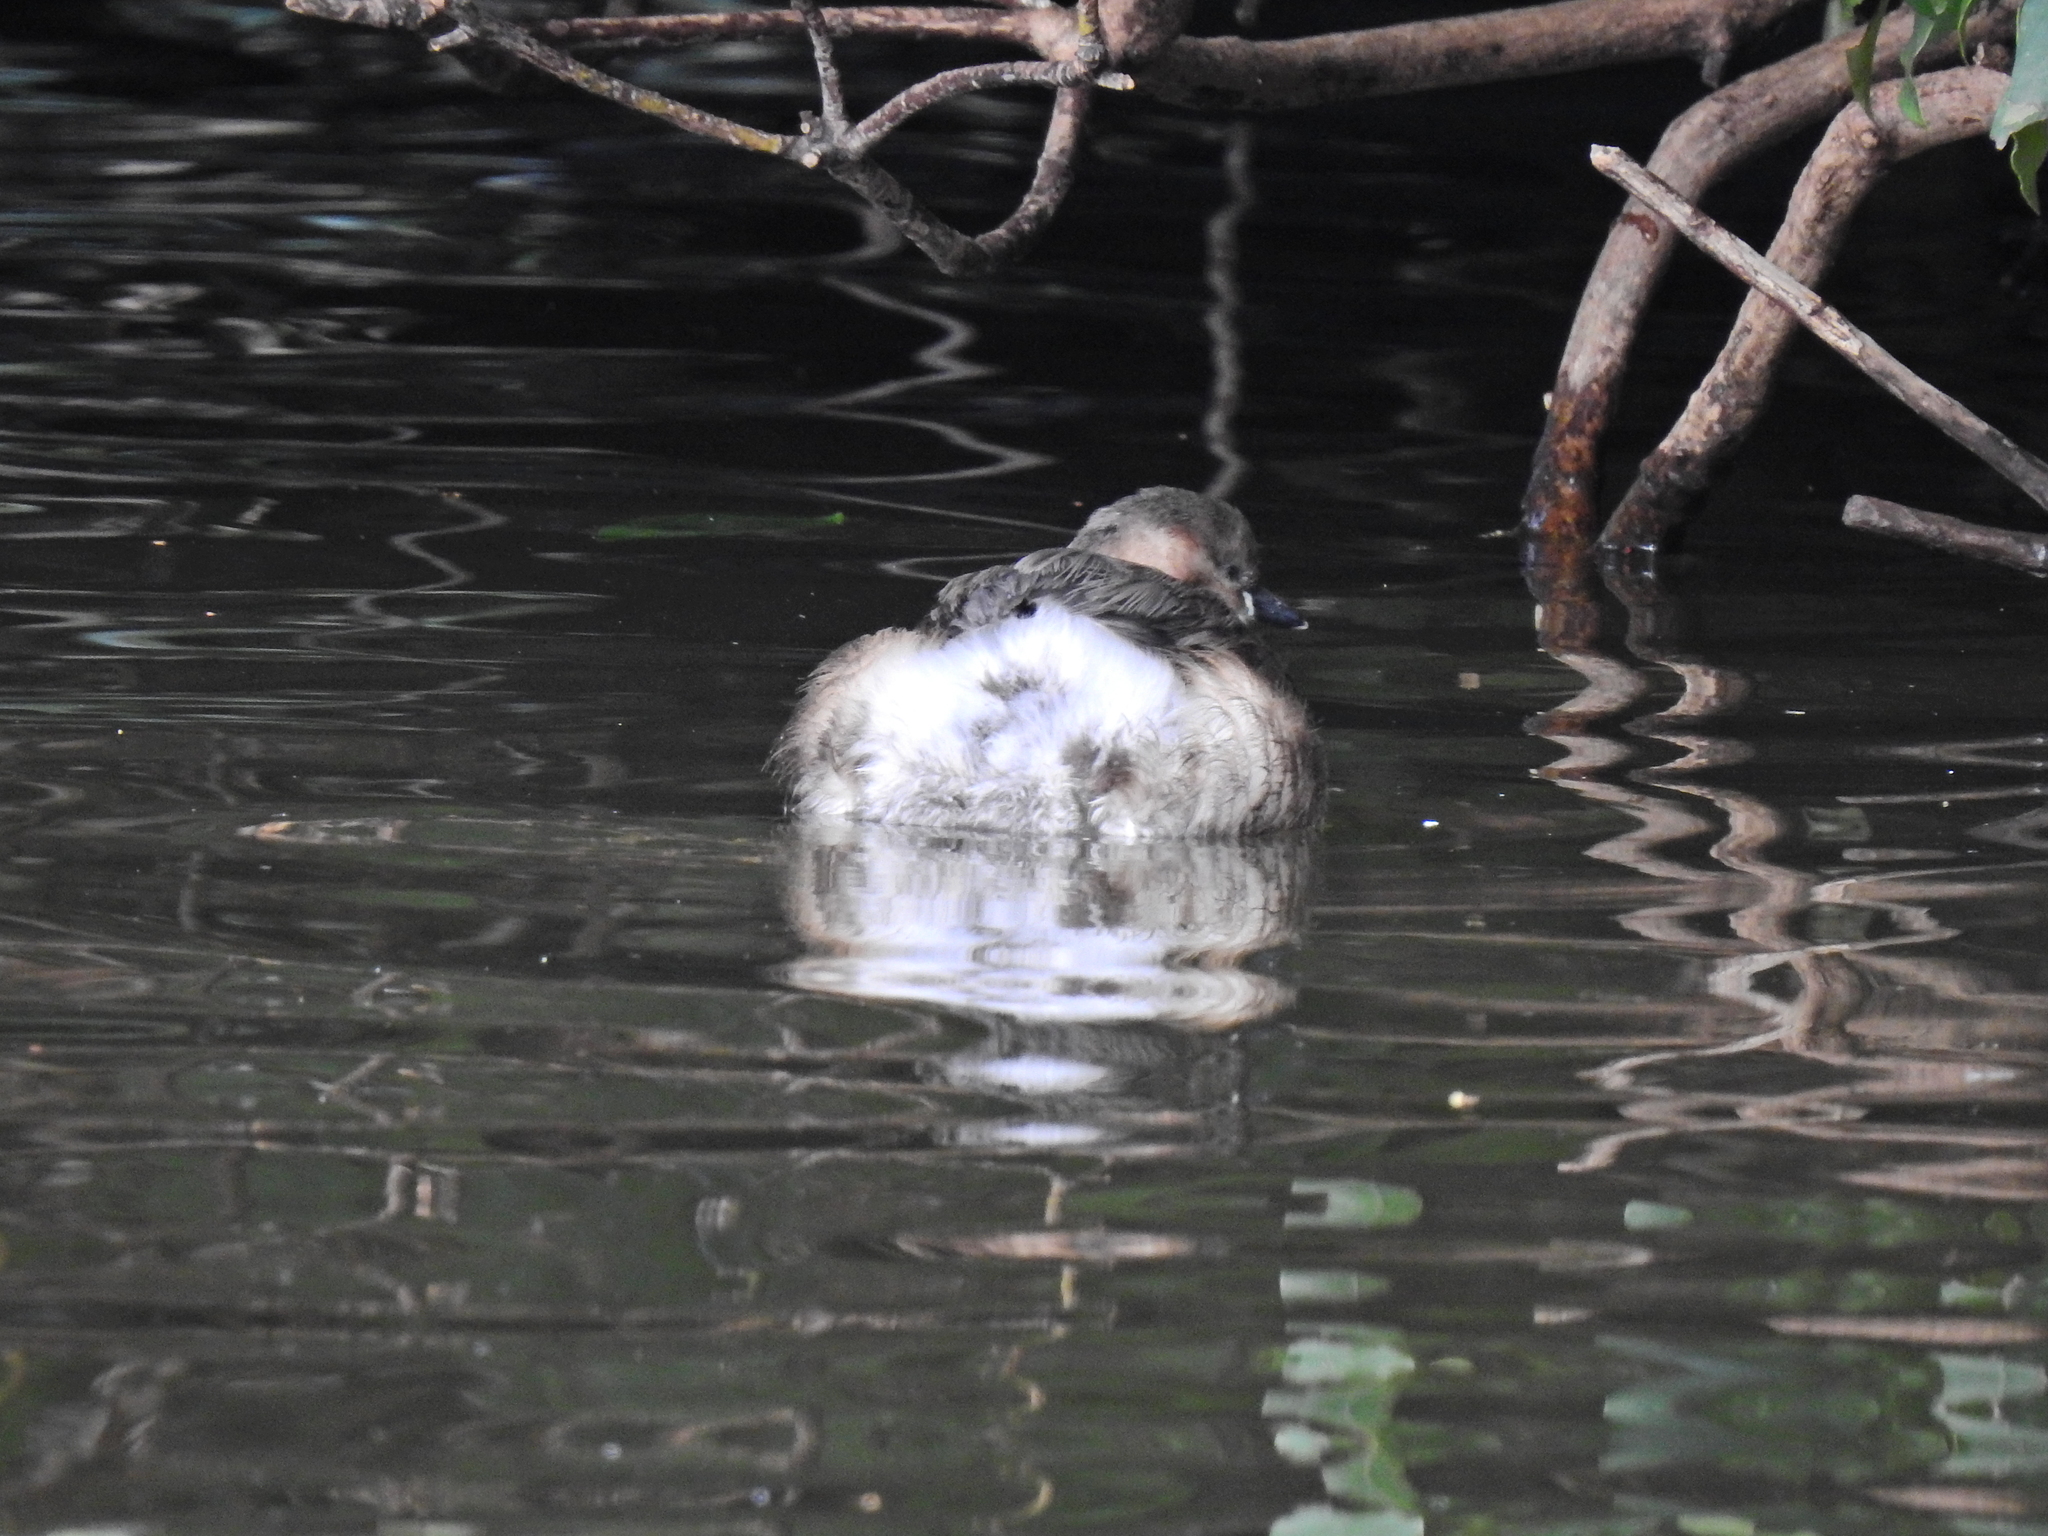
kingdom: Animalia
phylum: Chordata
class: Aves
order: Podicipediformes
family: Podicipedidae
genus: Tachybaptus
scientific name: Tachybaptus ruficollis
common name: Little grebe
